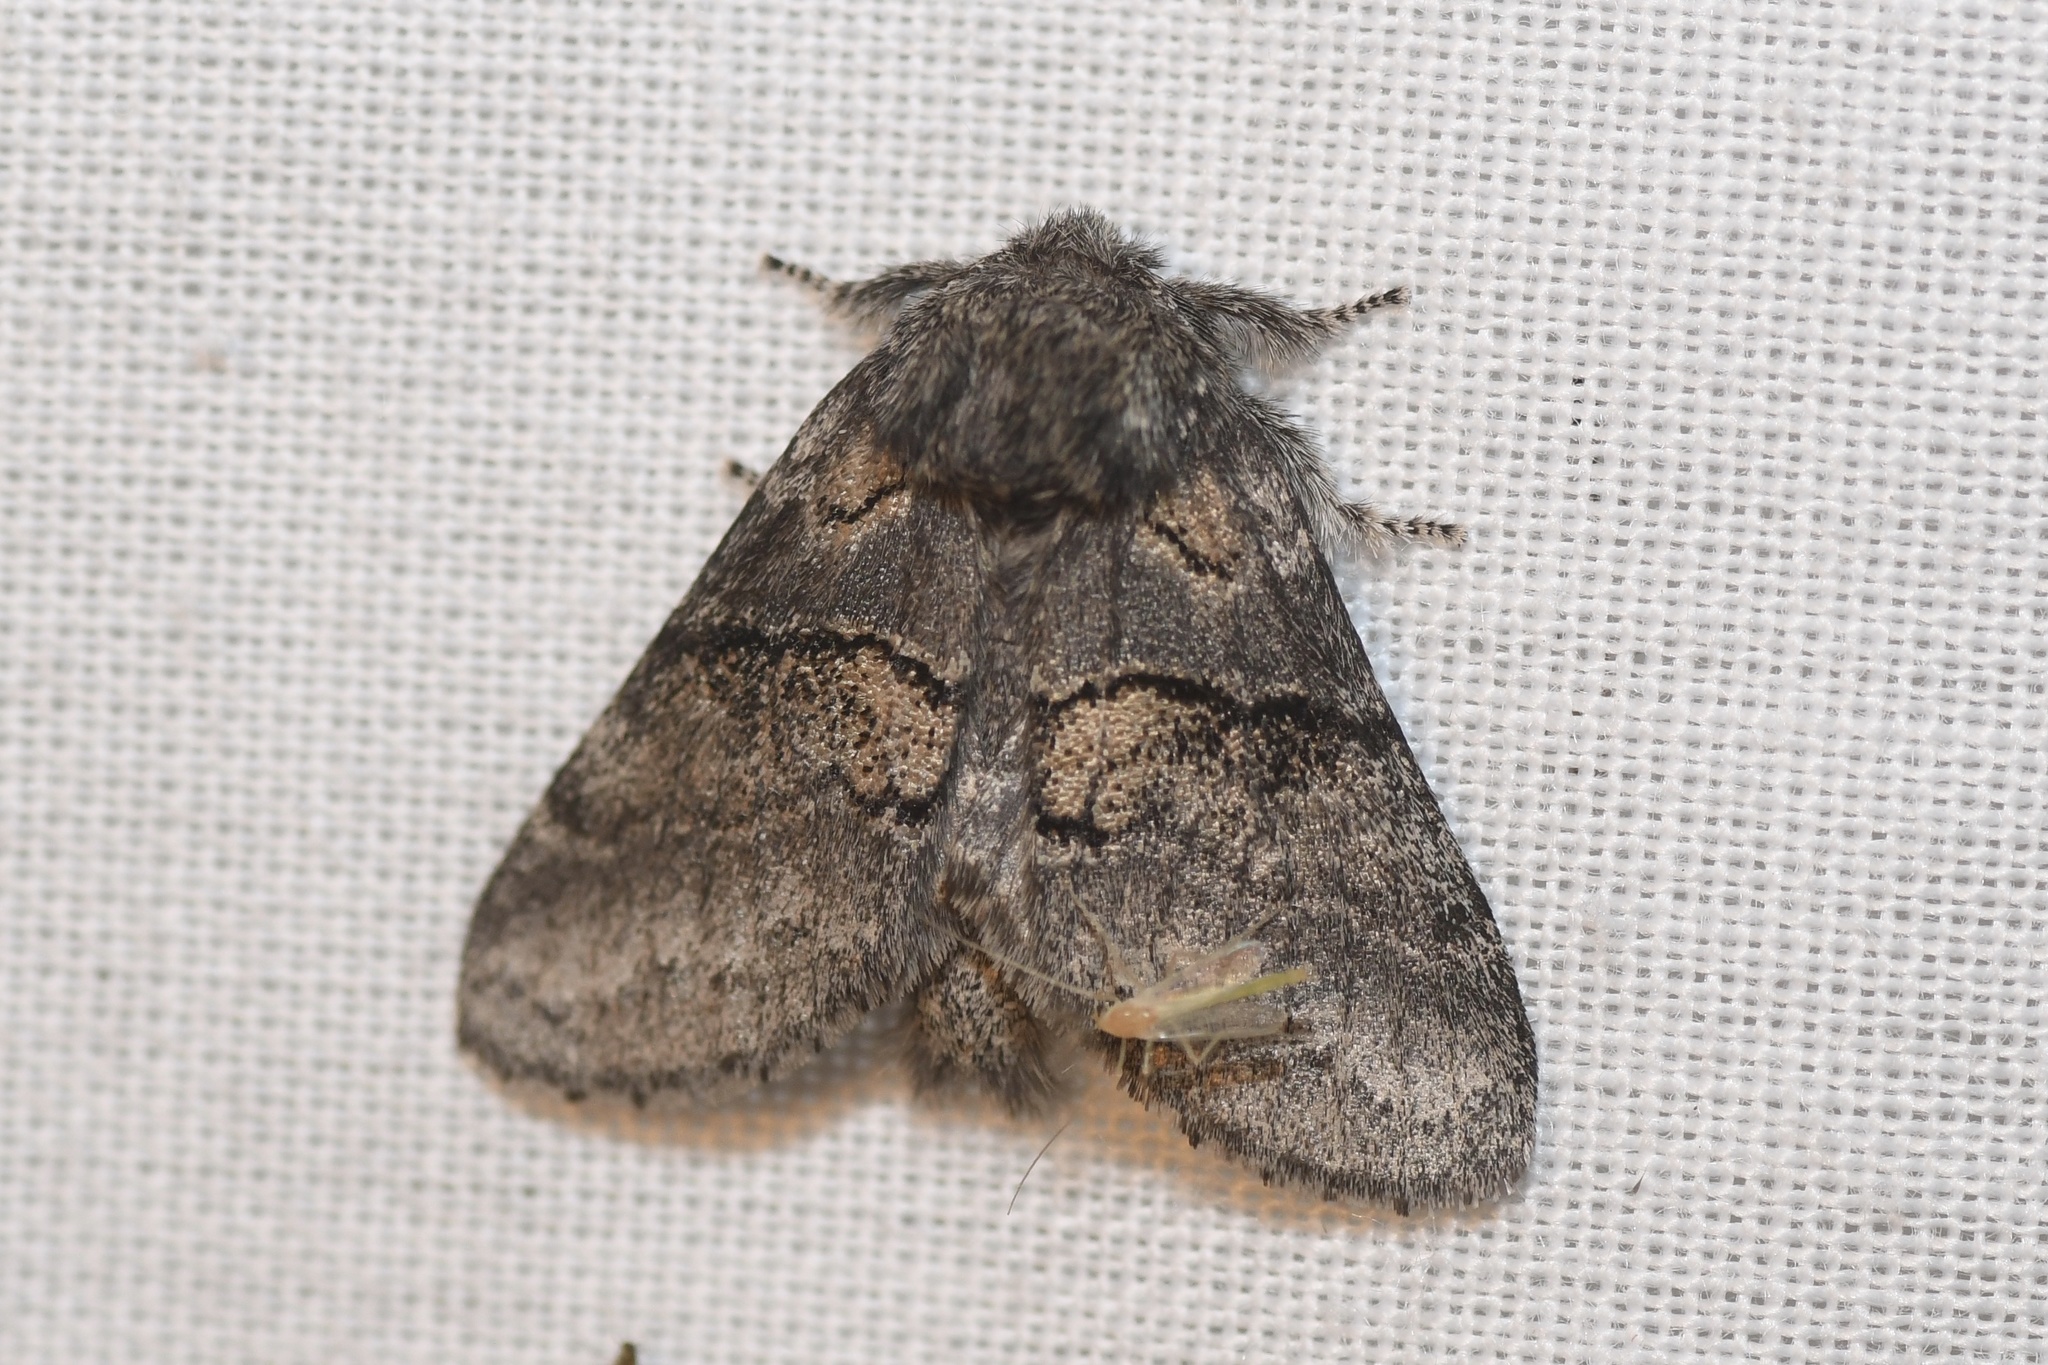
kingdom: Animalia
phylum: Arthropoda
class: Insecta
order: Lepidoptera
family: Notodontidae
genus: Gluphisia
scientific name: Gluphisia septentrionis
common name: Common gluphisia
